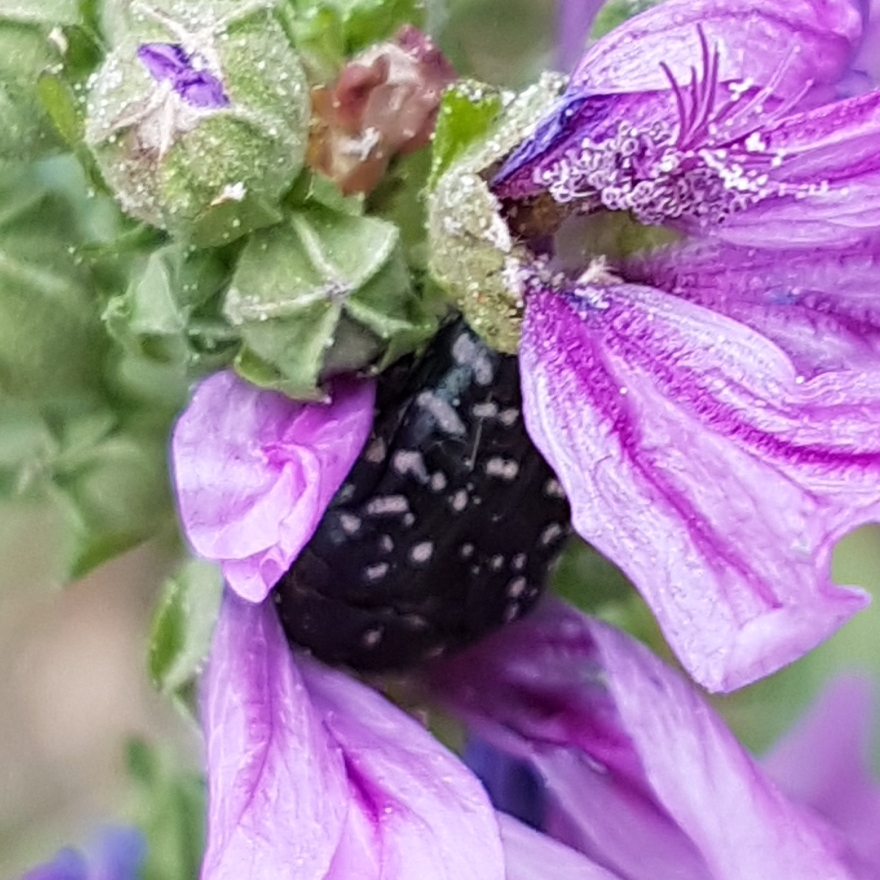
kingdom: Animalia
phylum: Arthropoda
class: Insecta
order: Coleoptera
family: Scarabaeidae
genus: Oxythyrea
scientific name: Oxythyrea funesta
